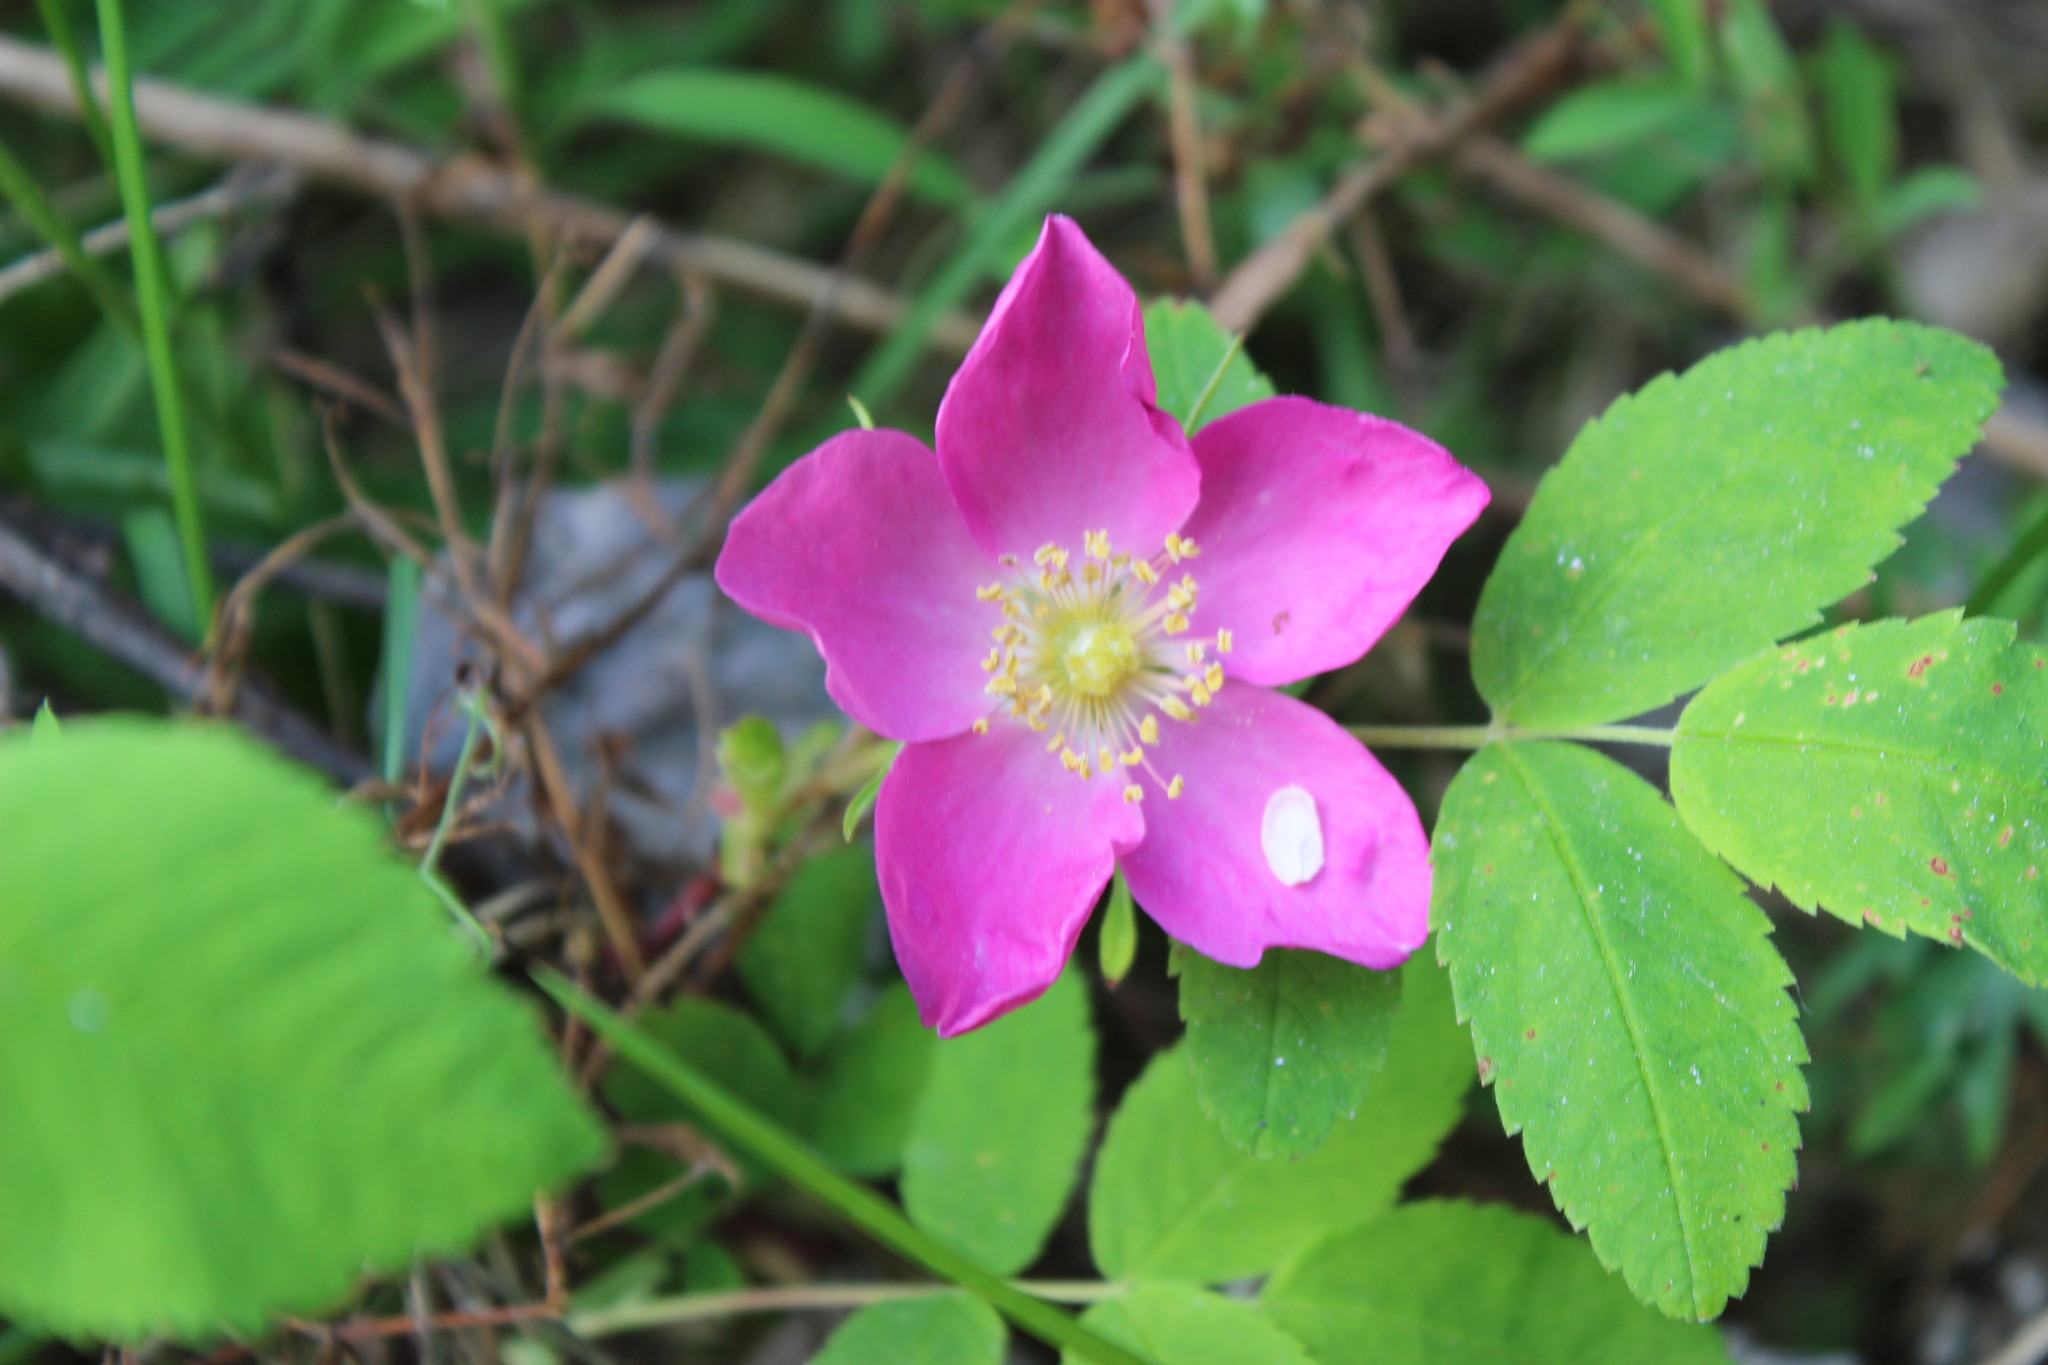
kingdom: Plantae
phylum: Tracheophyta
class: Magnoliopsida
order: Rosales
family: Rosaceae
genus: Rosa
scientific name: Rosa acicularis
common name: Prickly rose
